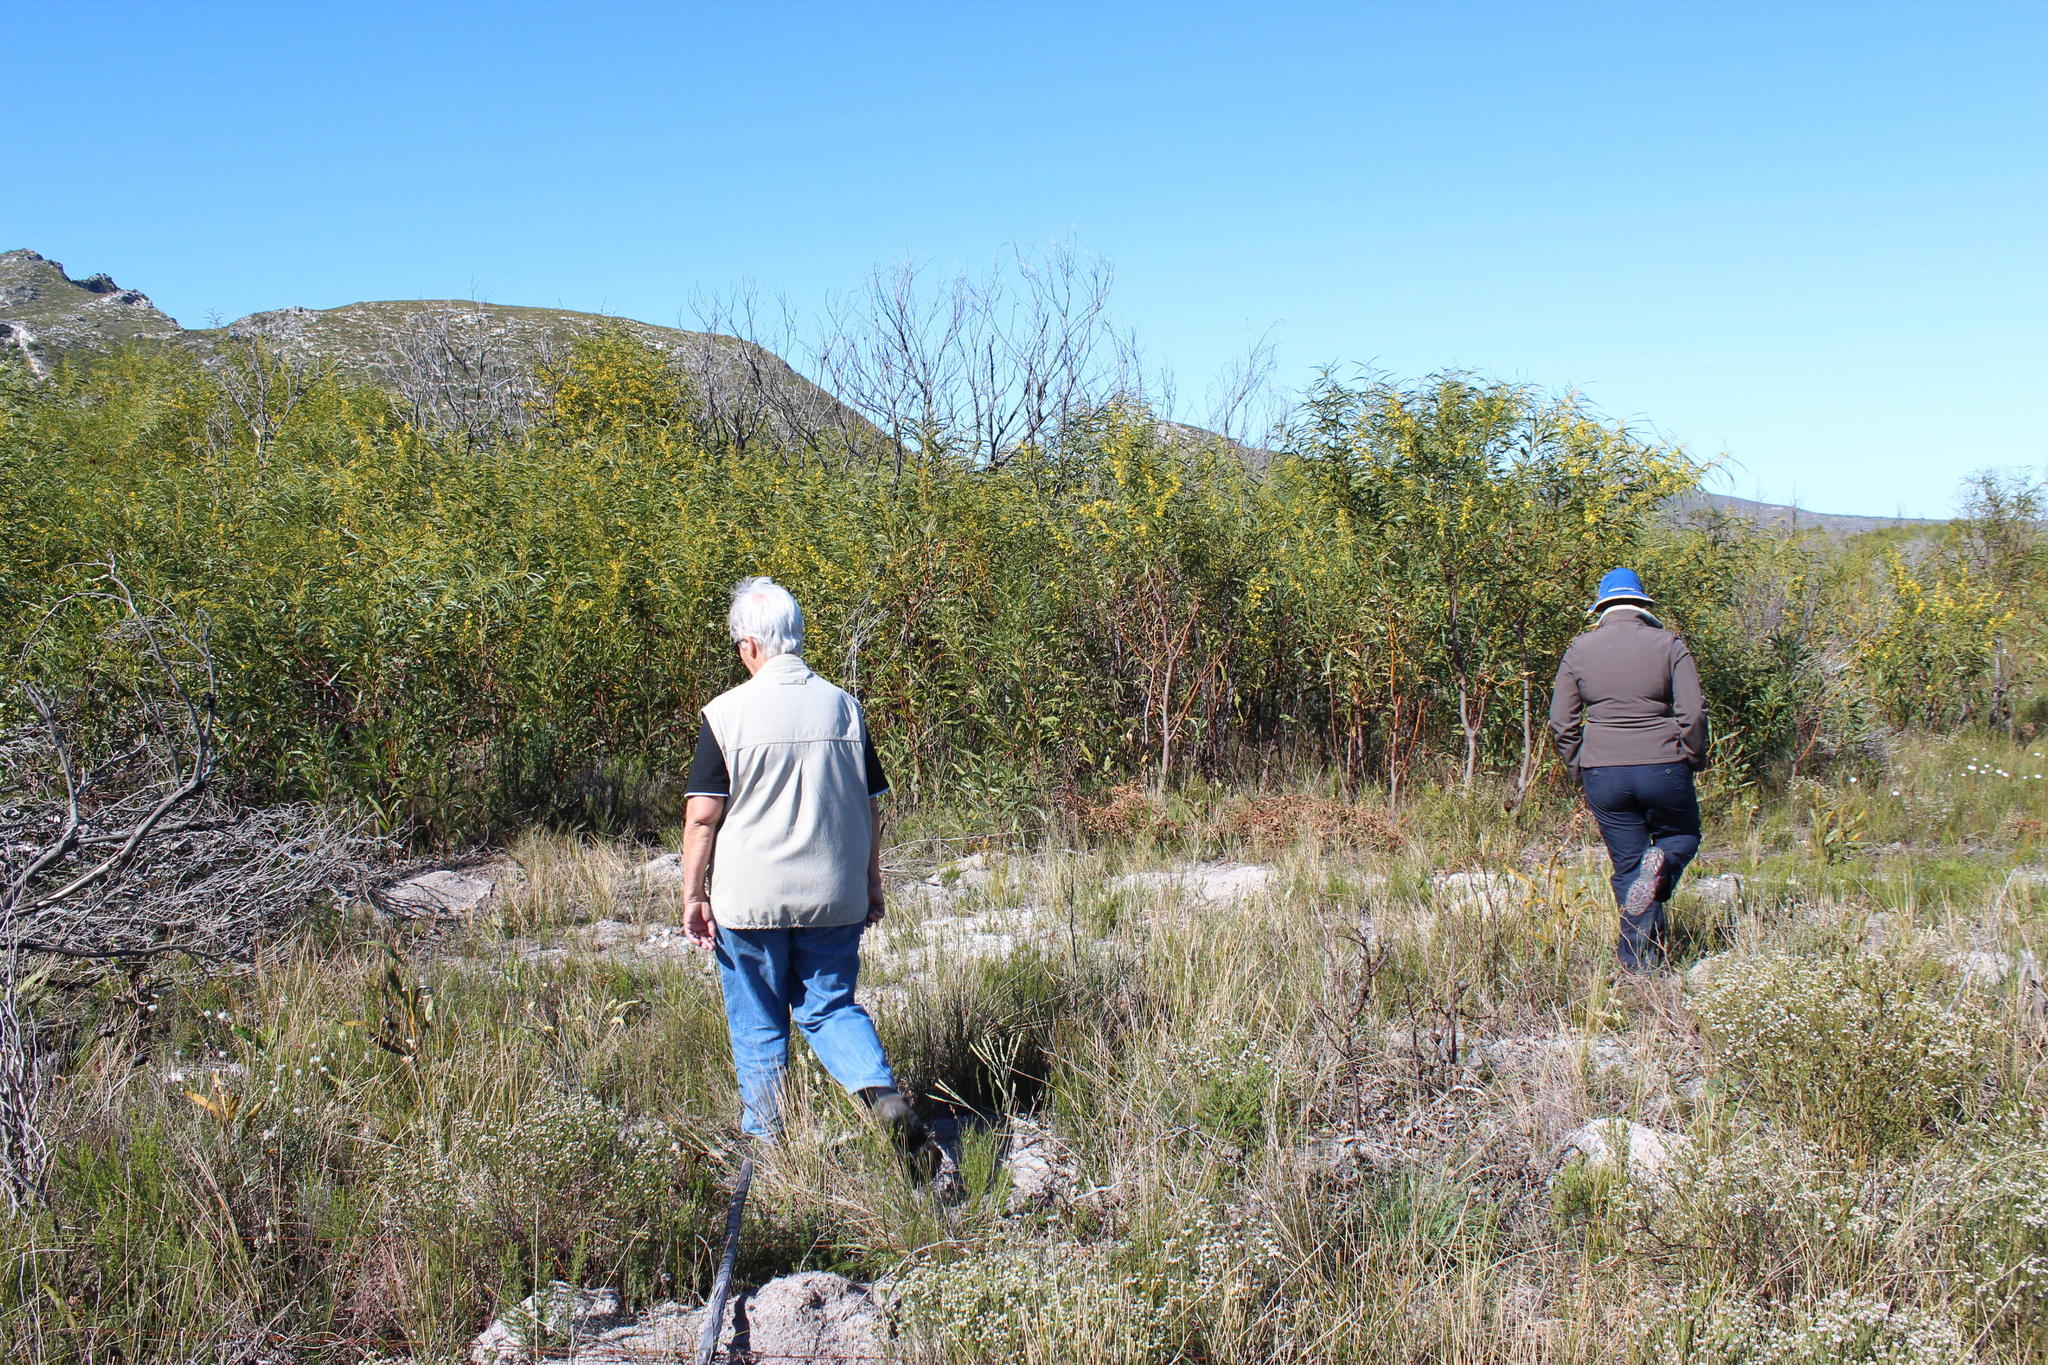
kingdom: Plantae
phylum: Tracheophyta
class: Magnoliopsida
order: Fabales
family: Fabaceae
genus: Acacia
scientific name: Acacia saligna
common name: Orange wattle
